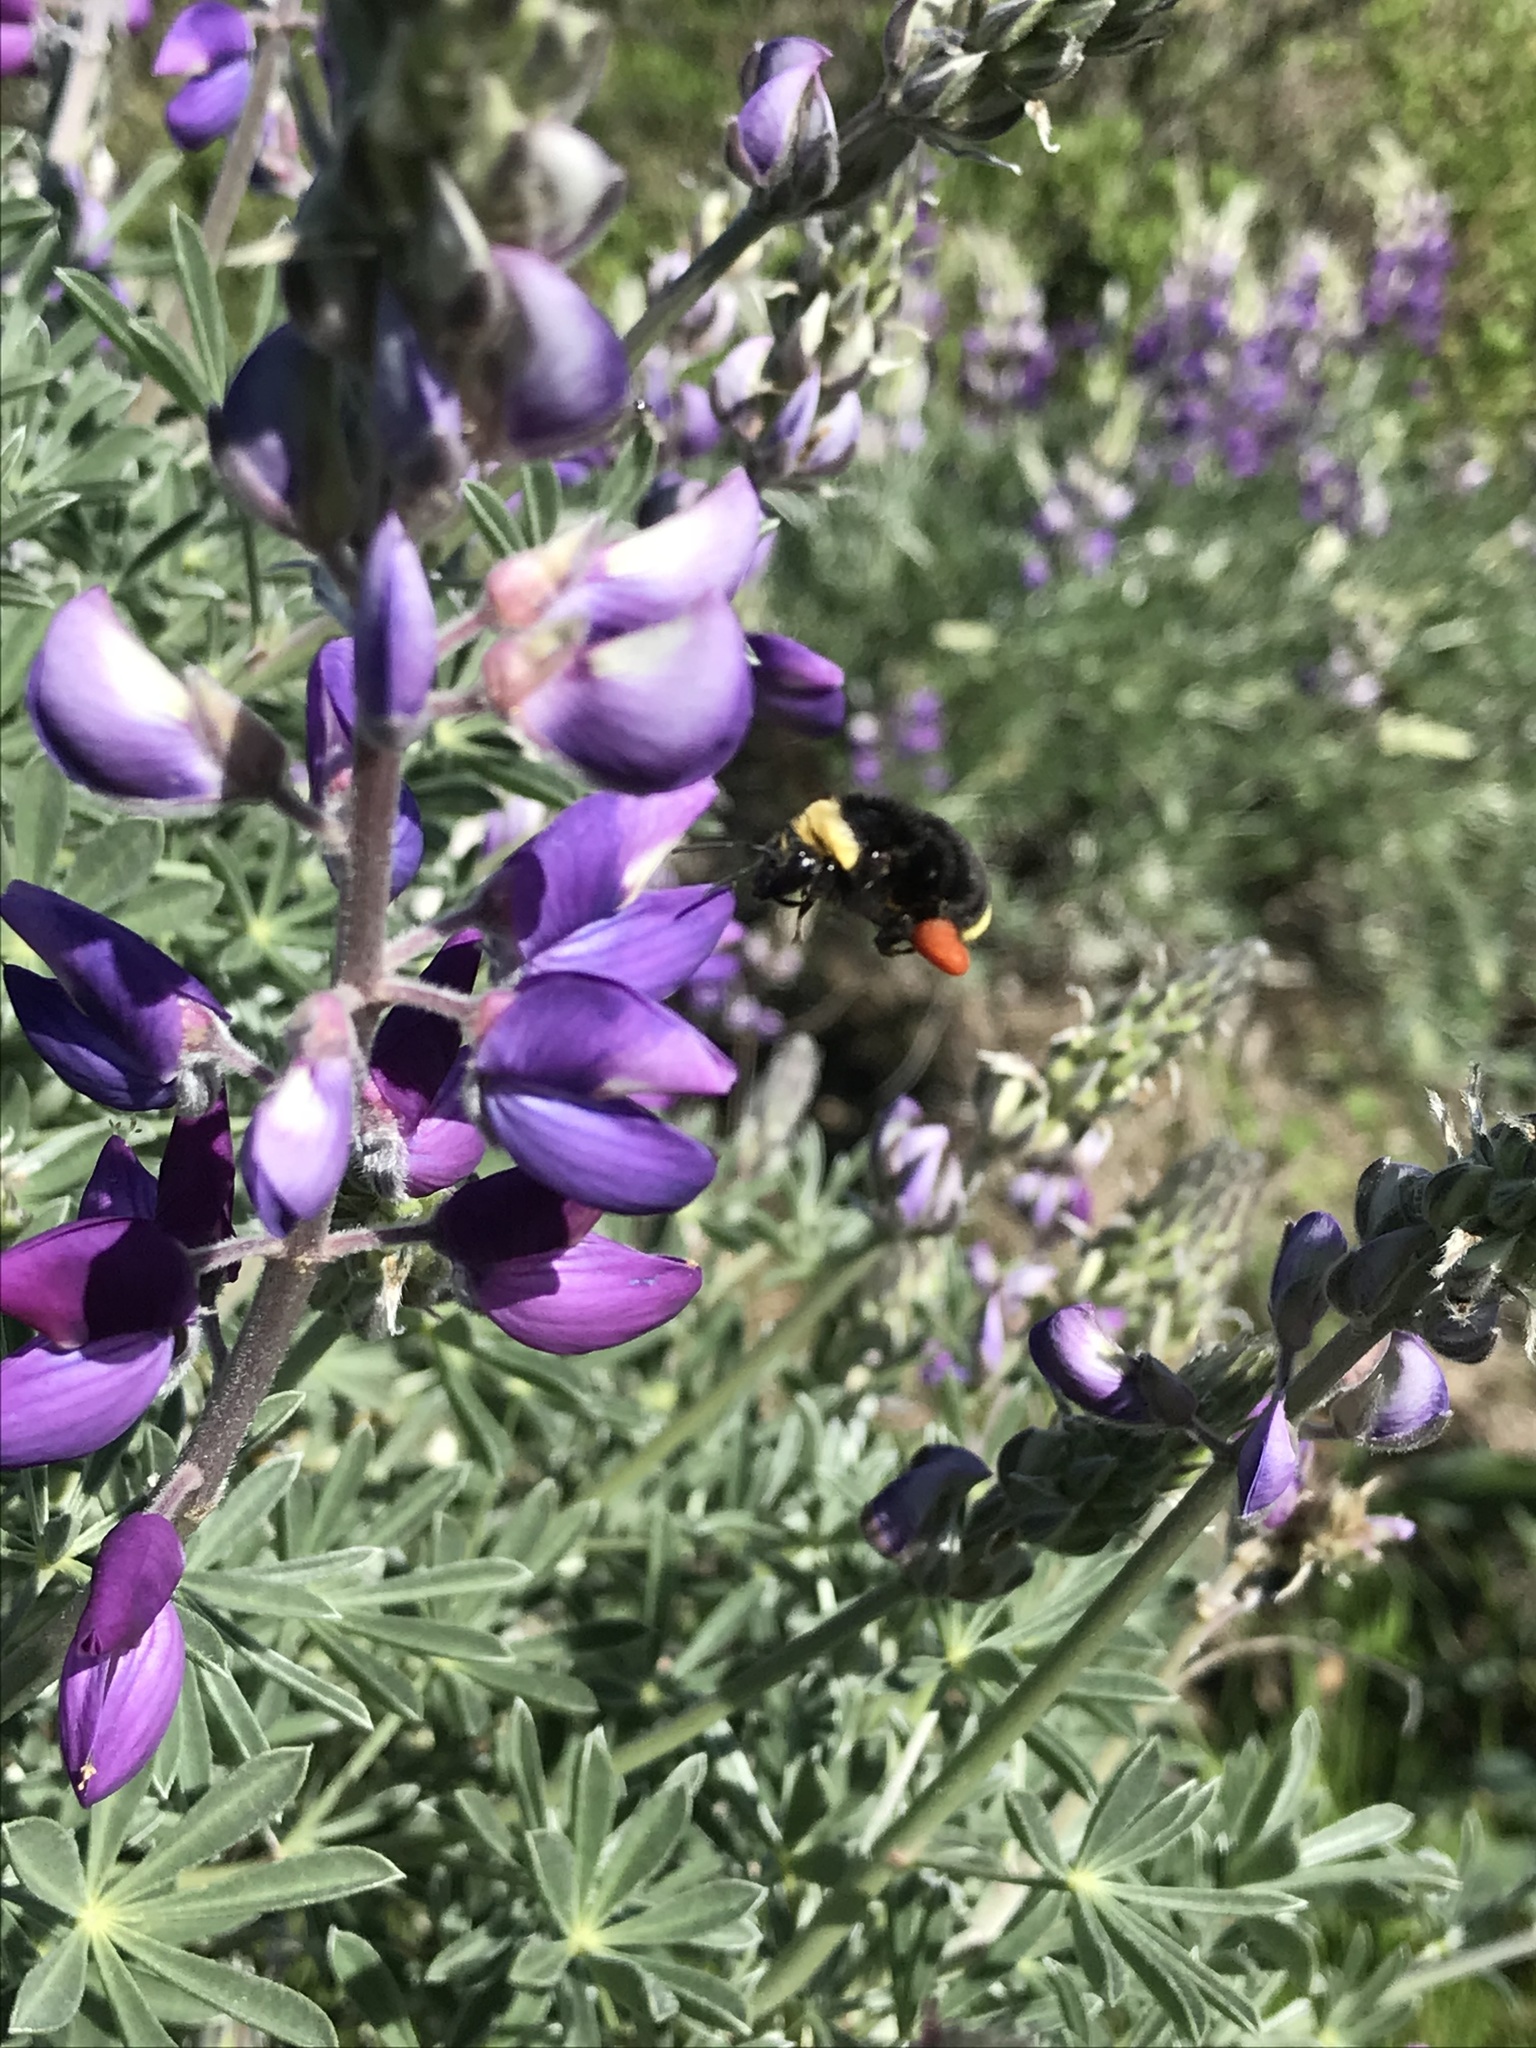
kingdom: Animalia
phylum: Arthropoda
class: Insecta
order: Hymenoptera
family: Apidae
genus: Pyrobombus
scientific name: Pyrobombus
